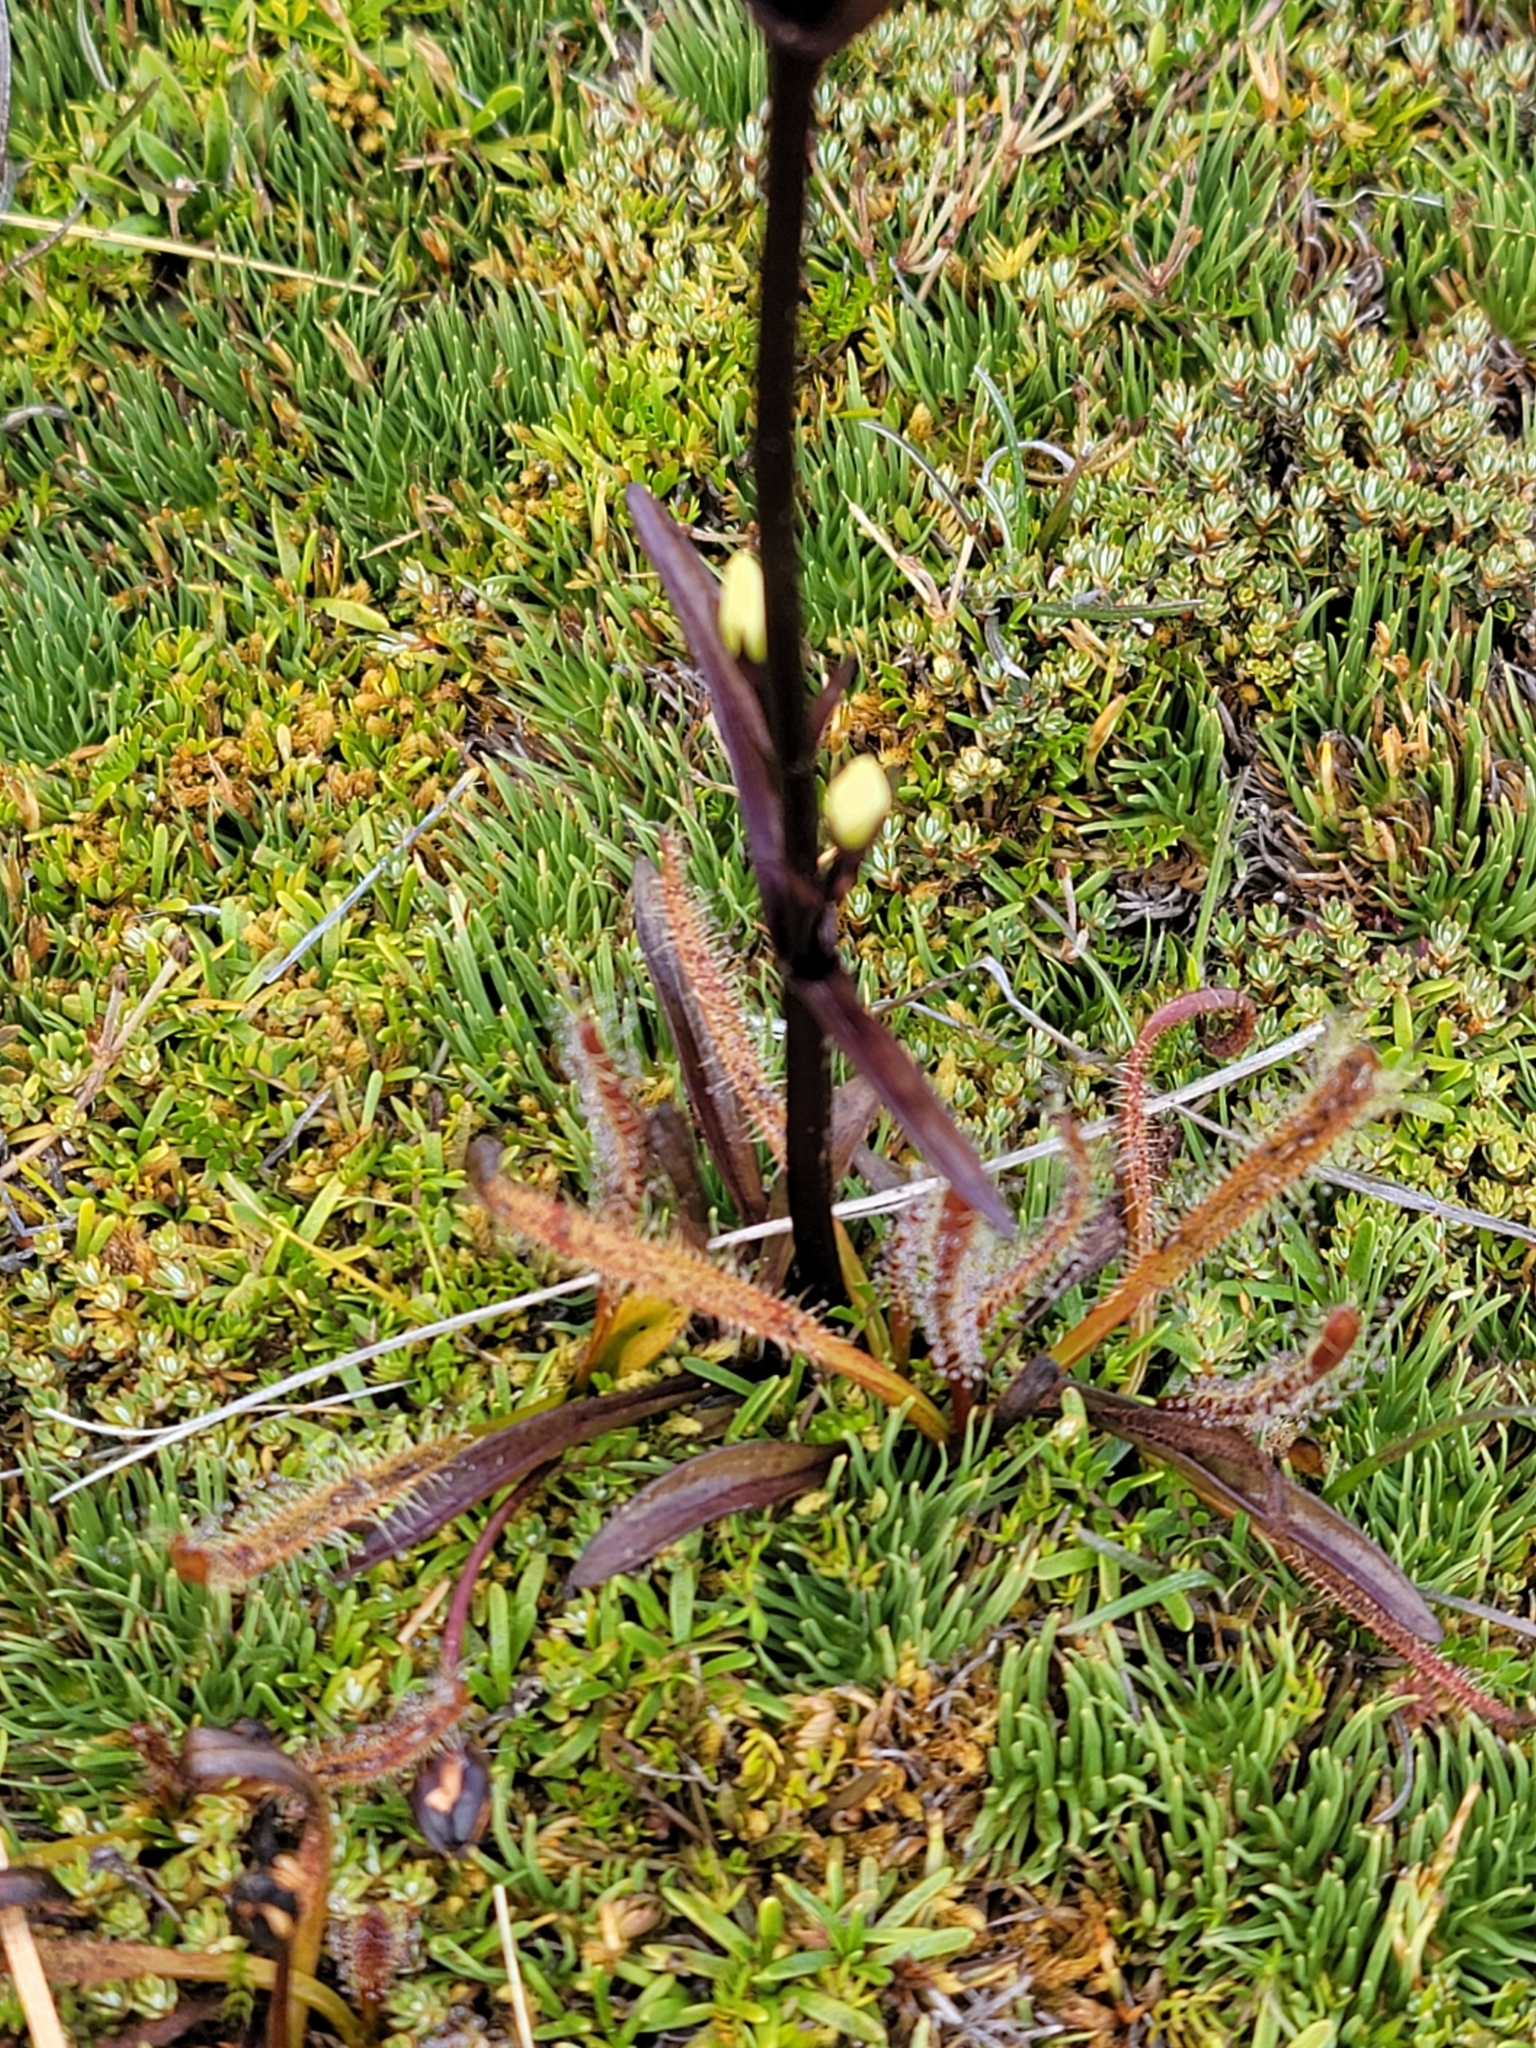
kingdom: Plantae
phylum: Tracheophyta
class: Magnoliopsida
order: Gentianales
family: Gentianaceae
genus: Gentianella
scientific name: Gentianella corymbifera
